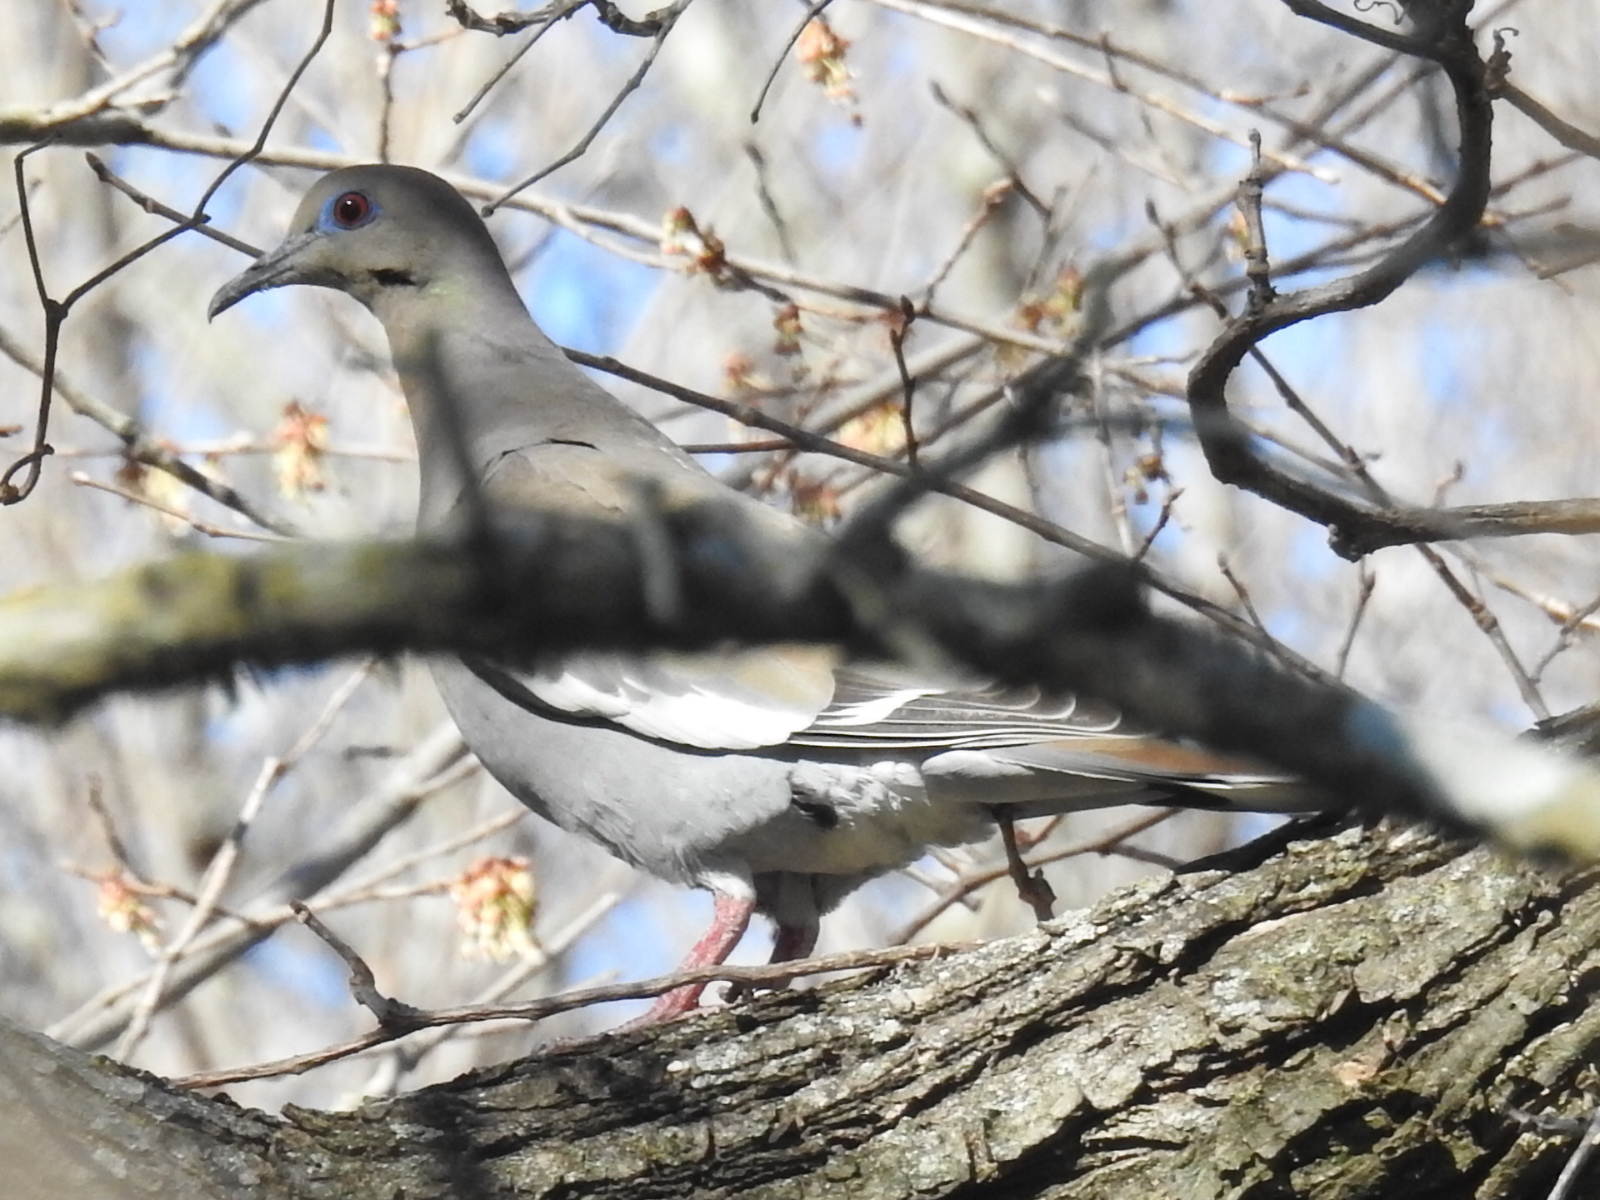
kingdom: Animalia
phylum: Chordata
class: Aves
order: Columbiformes
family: Columbidae
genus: Zenaida
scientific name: Zenaida asiatica
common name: White-winged dove
